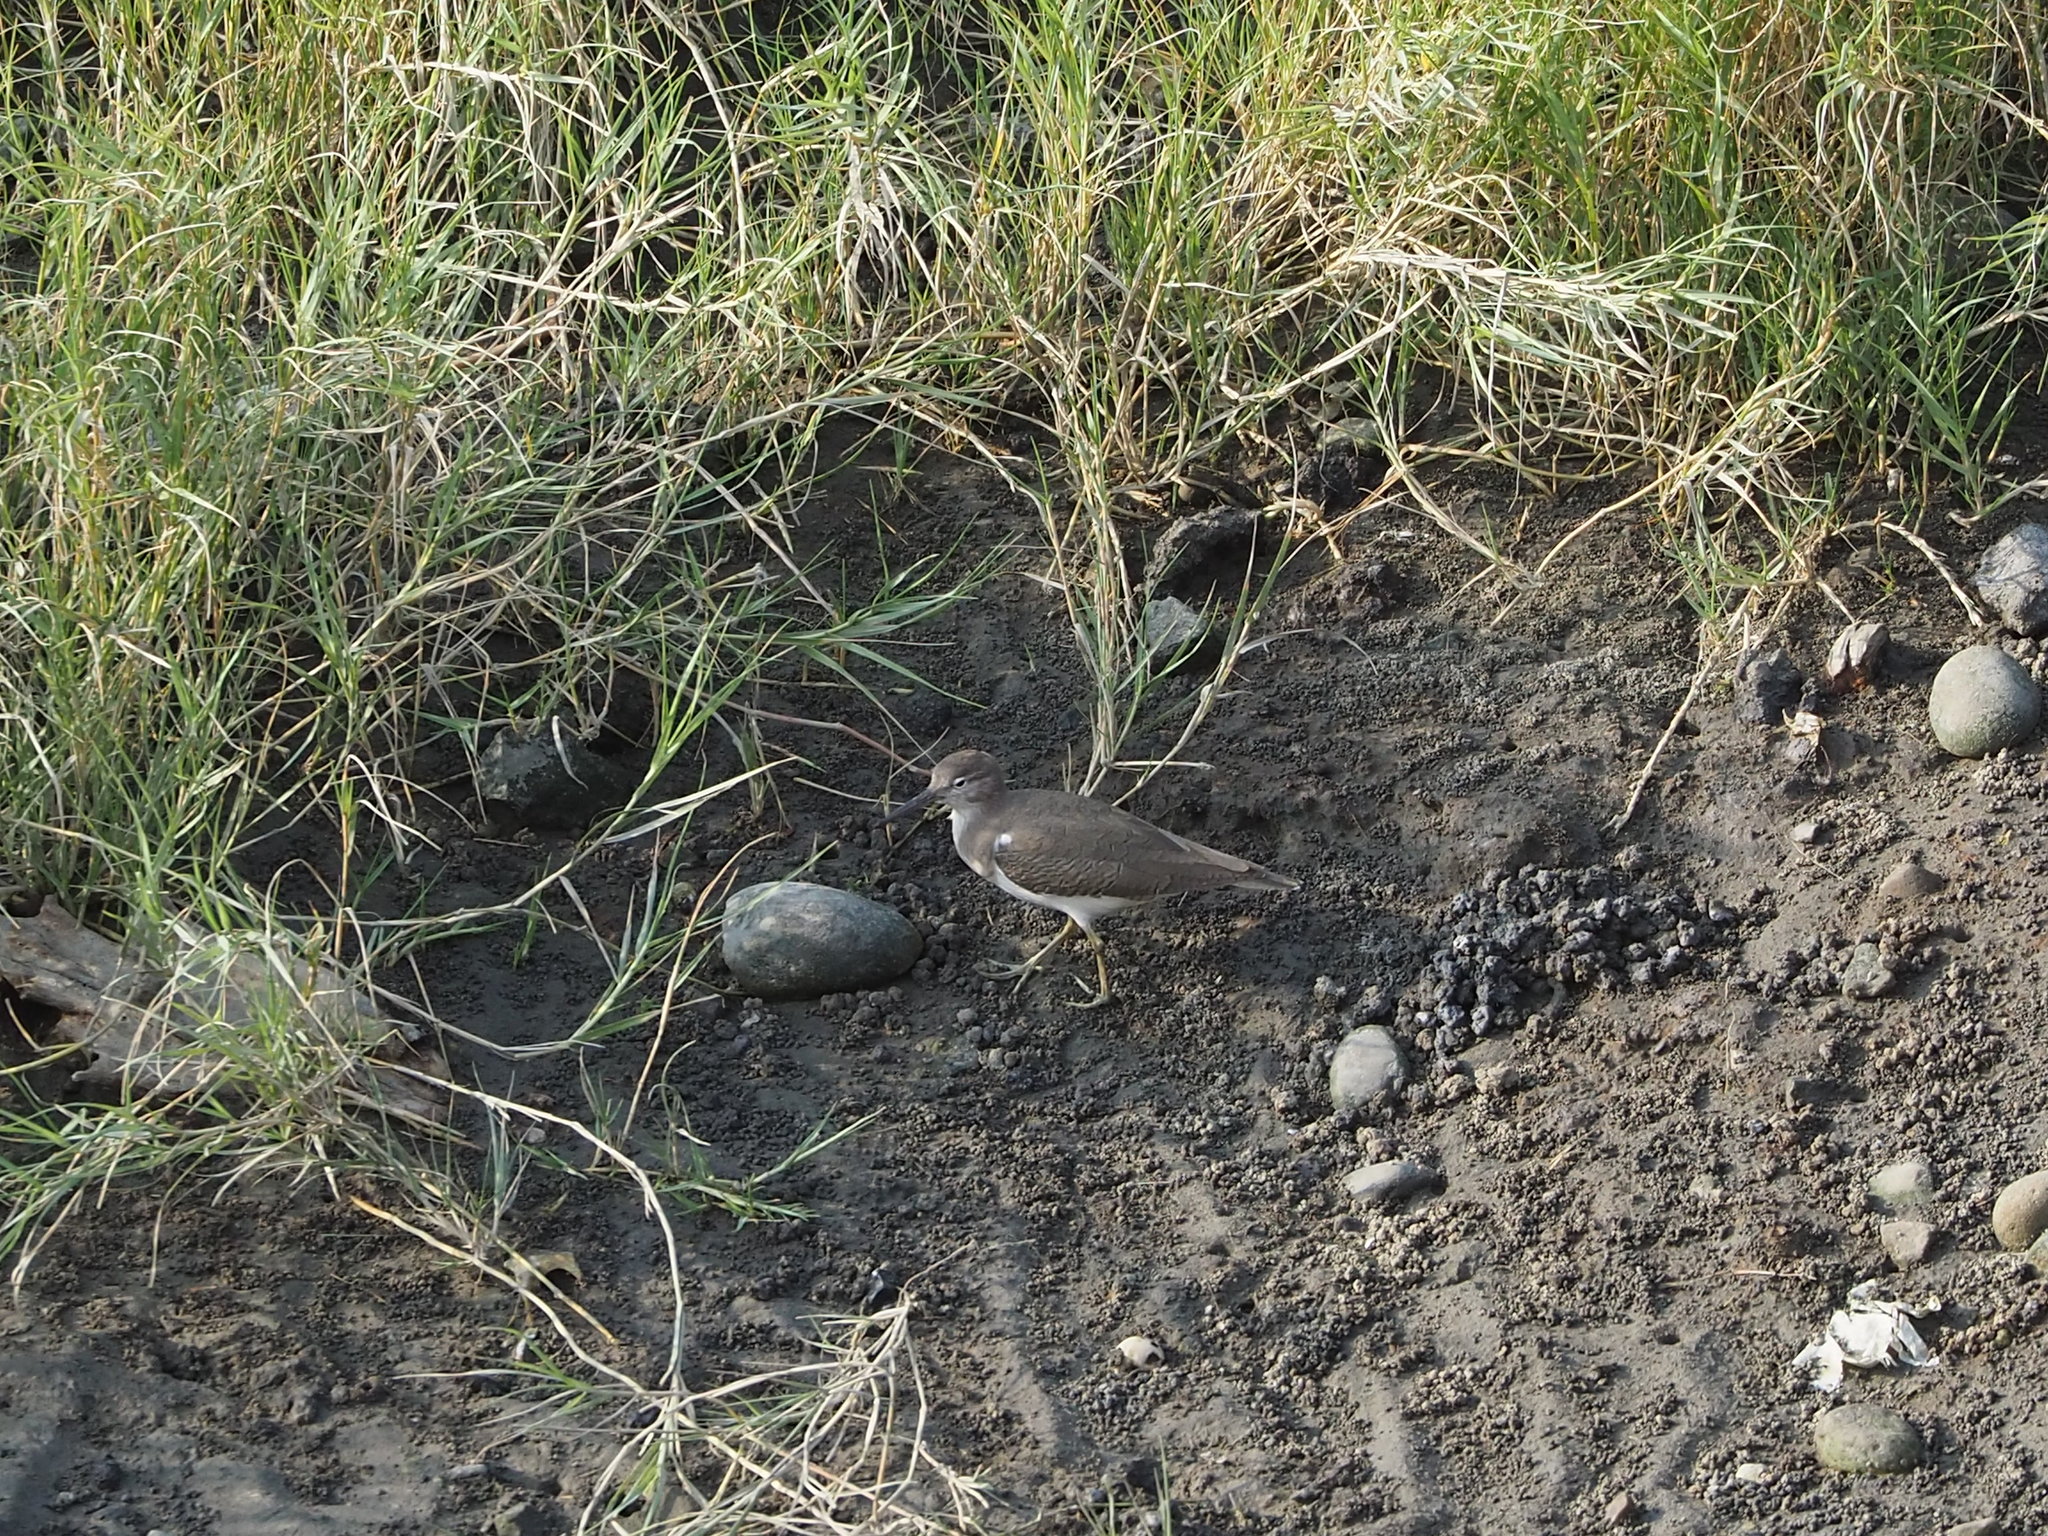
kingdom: Animalia
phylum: Chordata
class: Aves
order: Charadriiformes
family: Scolopacidae
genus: Actitis
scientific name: Actitis hypoleucos
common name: Common sandpiper
